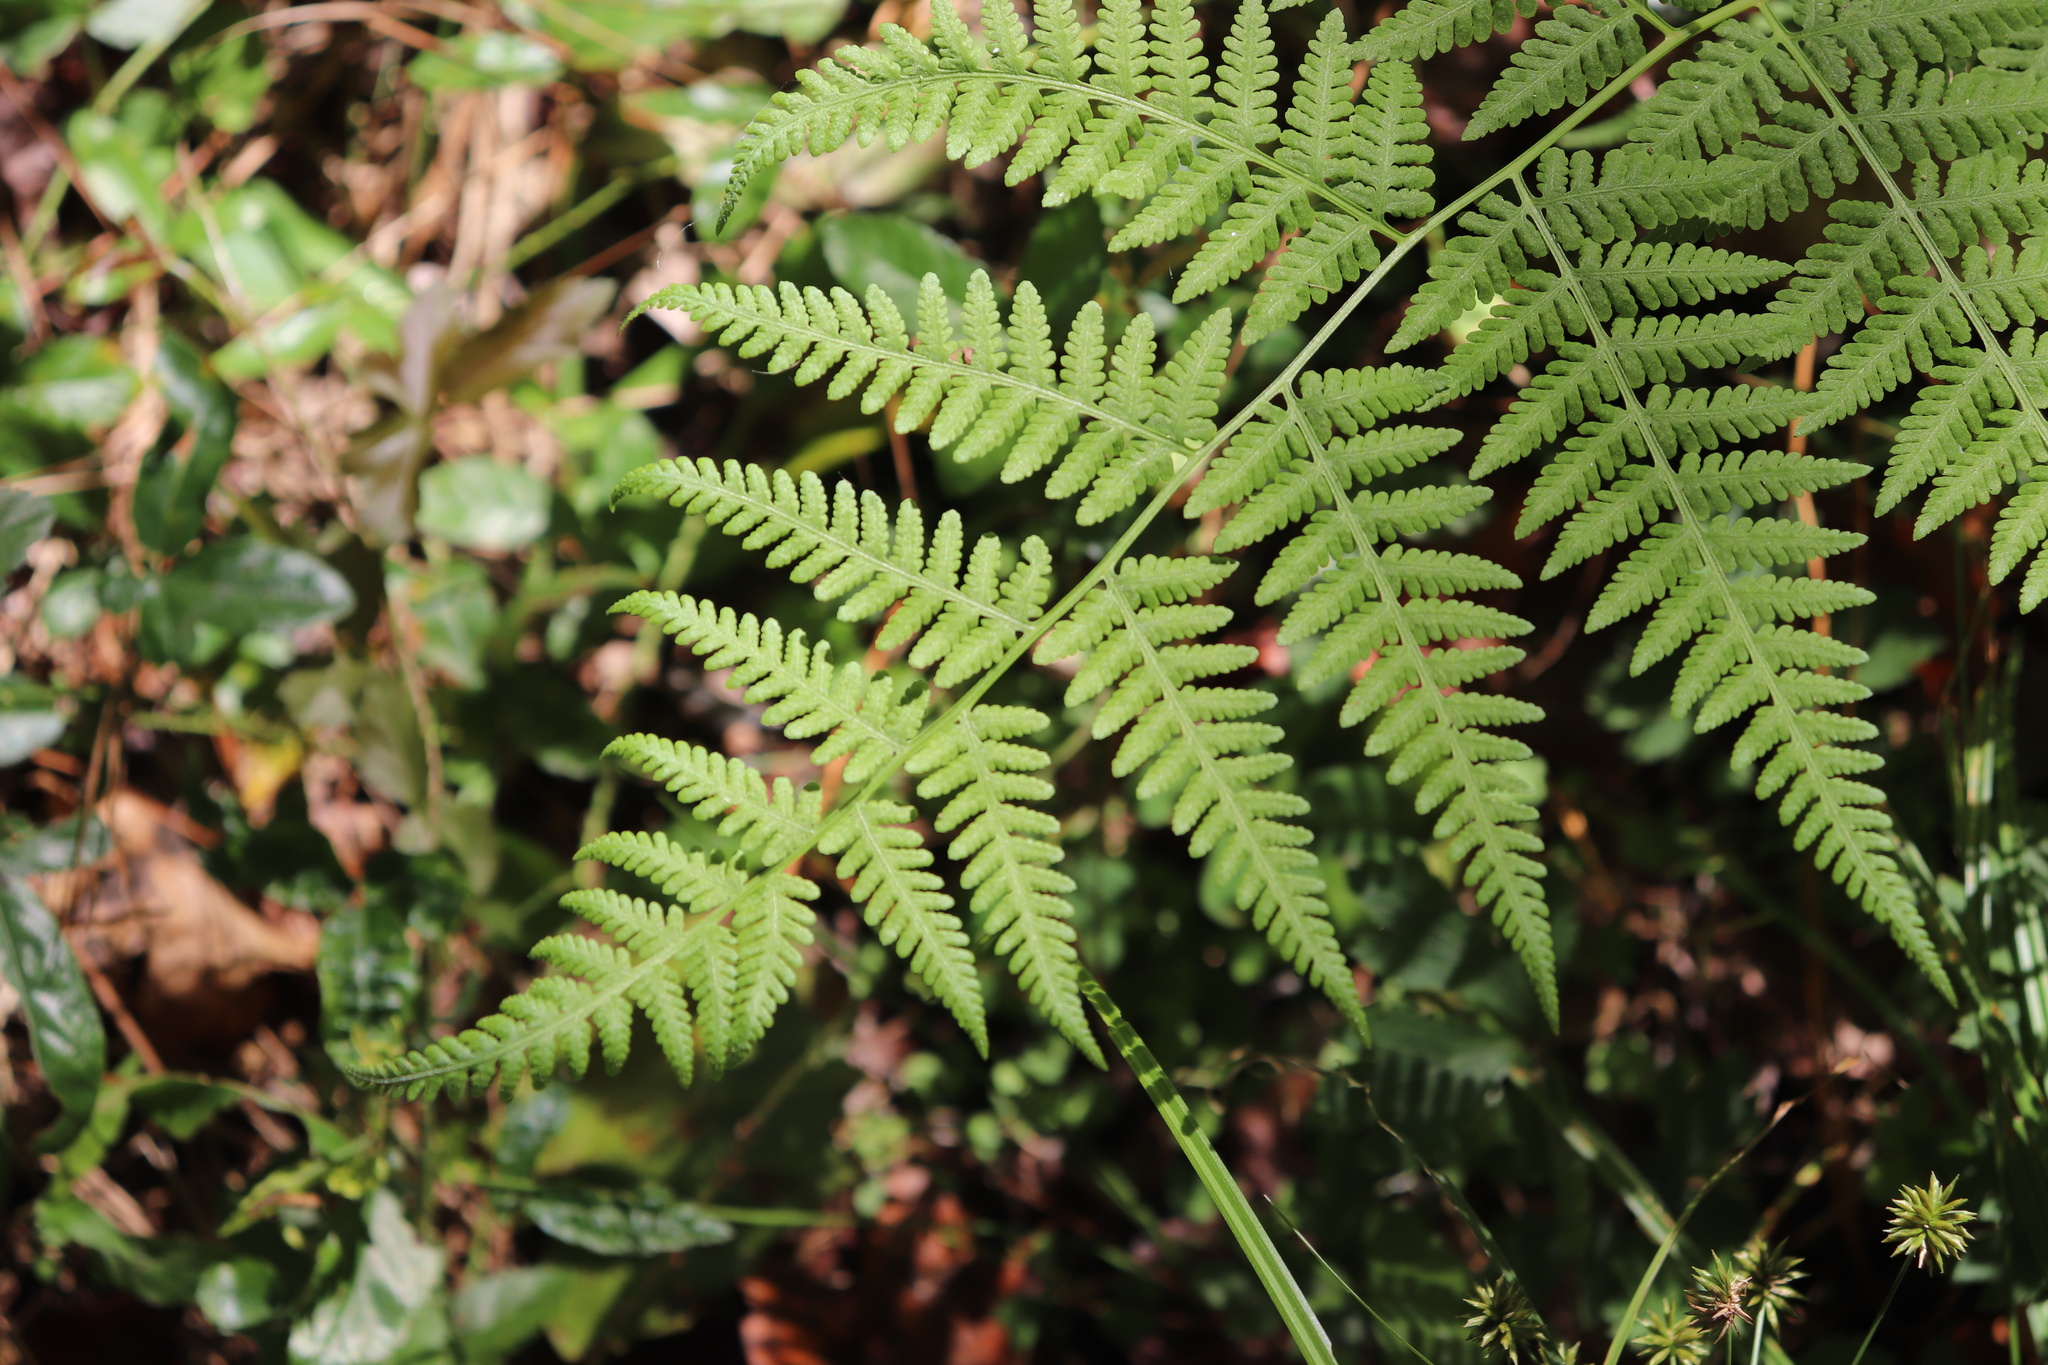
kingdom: Plantae
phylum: Tracheophyta
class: Polypodiopsida
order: Polypodiales
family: Thelypteridaceae
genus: Macrothelypteris
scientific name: Macrothelypteris torresiana
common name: Swordfern
